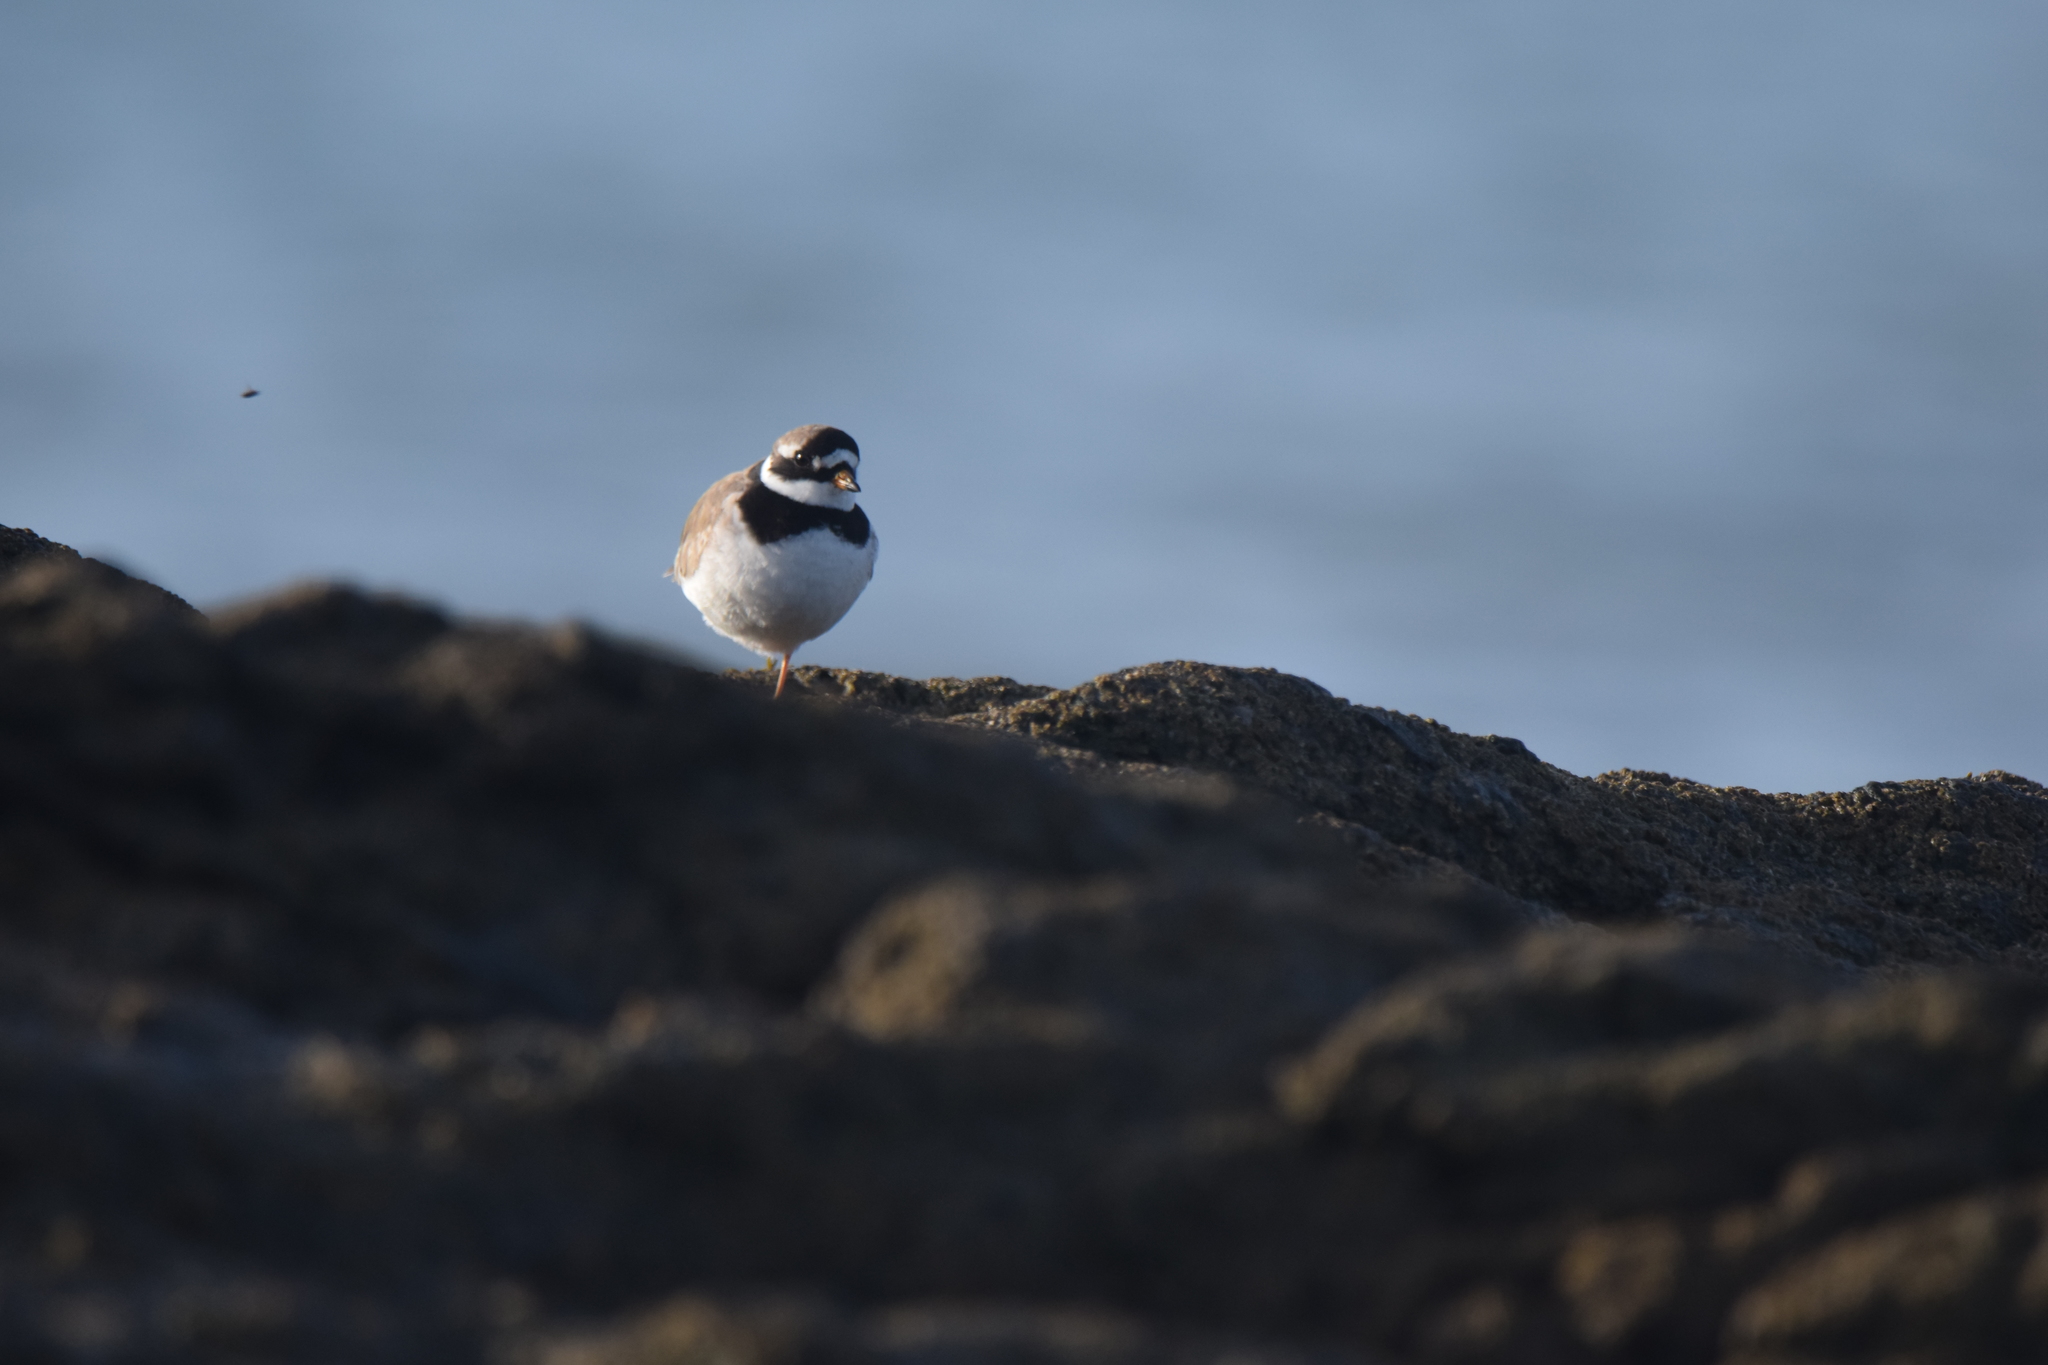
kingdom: Animalia
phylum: Chordata
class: Aves
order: Charadriiformes
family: Charadriidae
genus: Charadrius
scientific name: Charadrius hiaticula
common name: Common ringed plover
